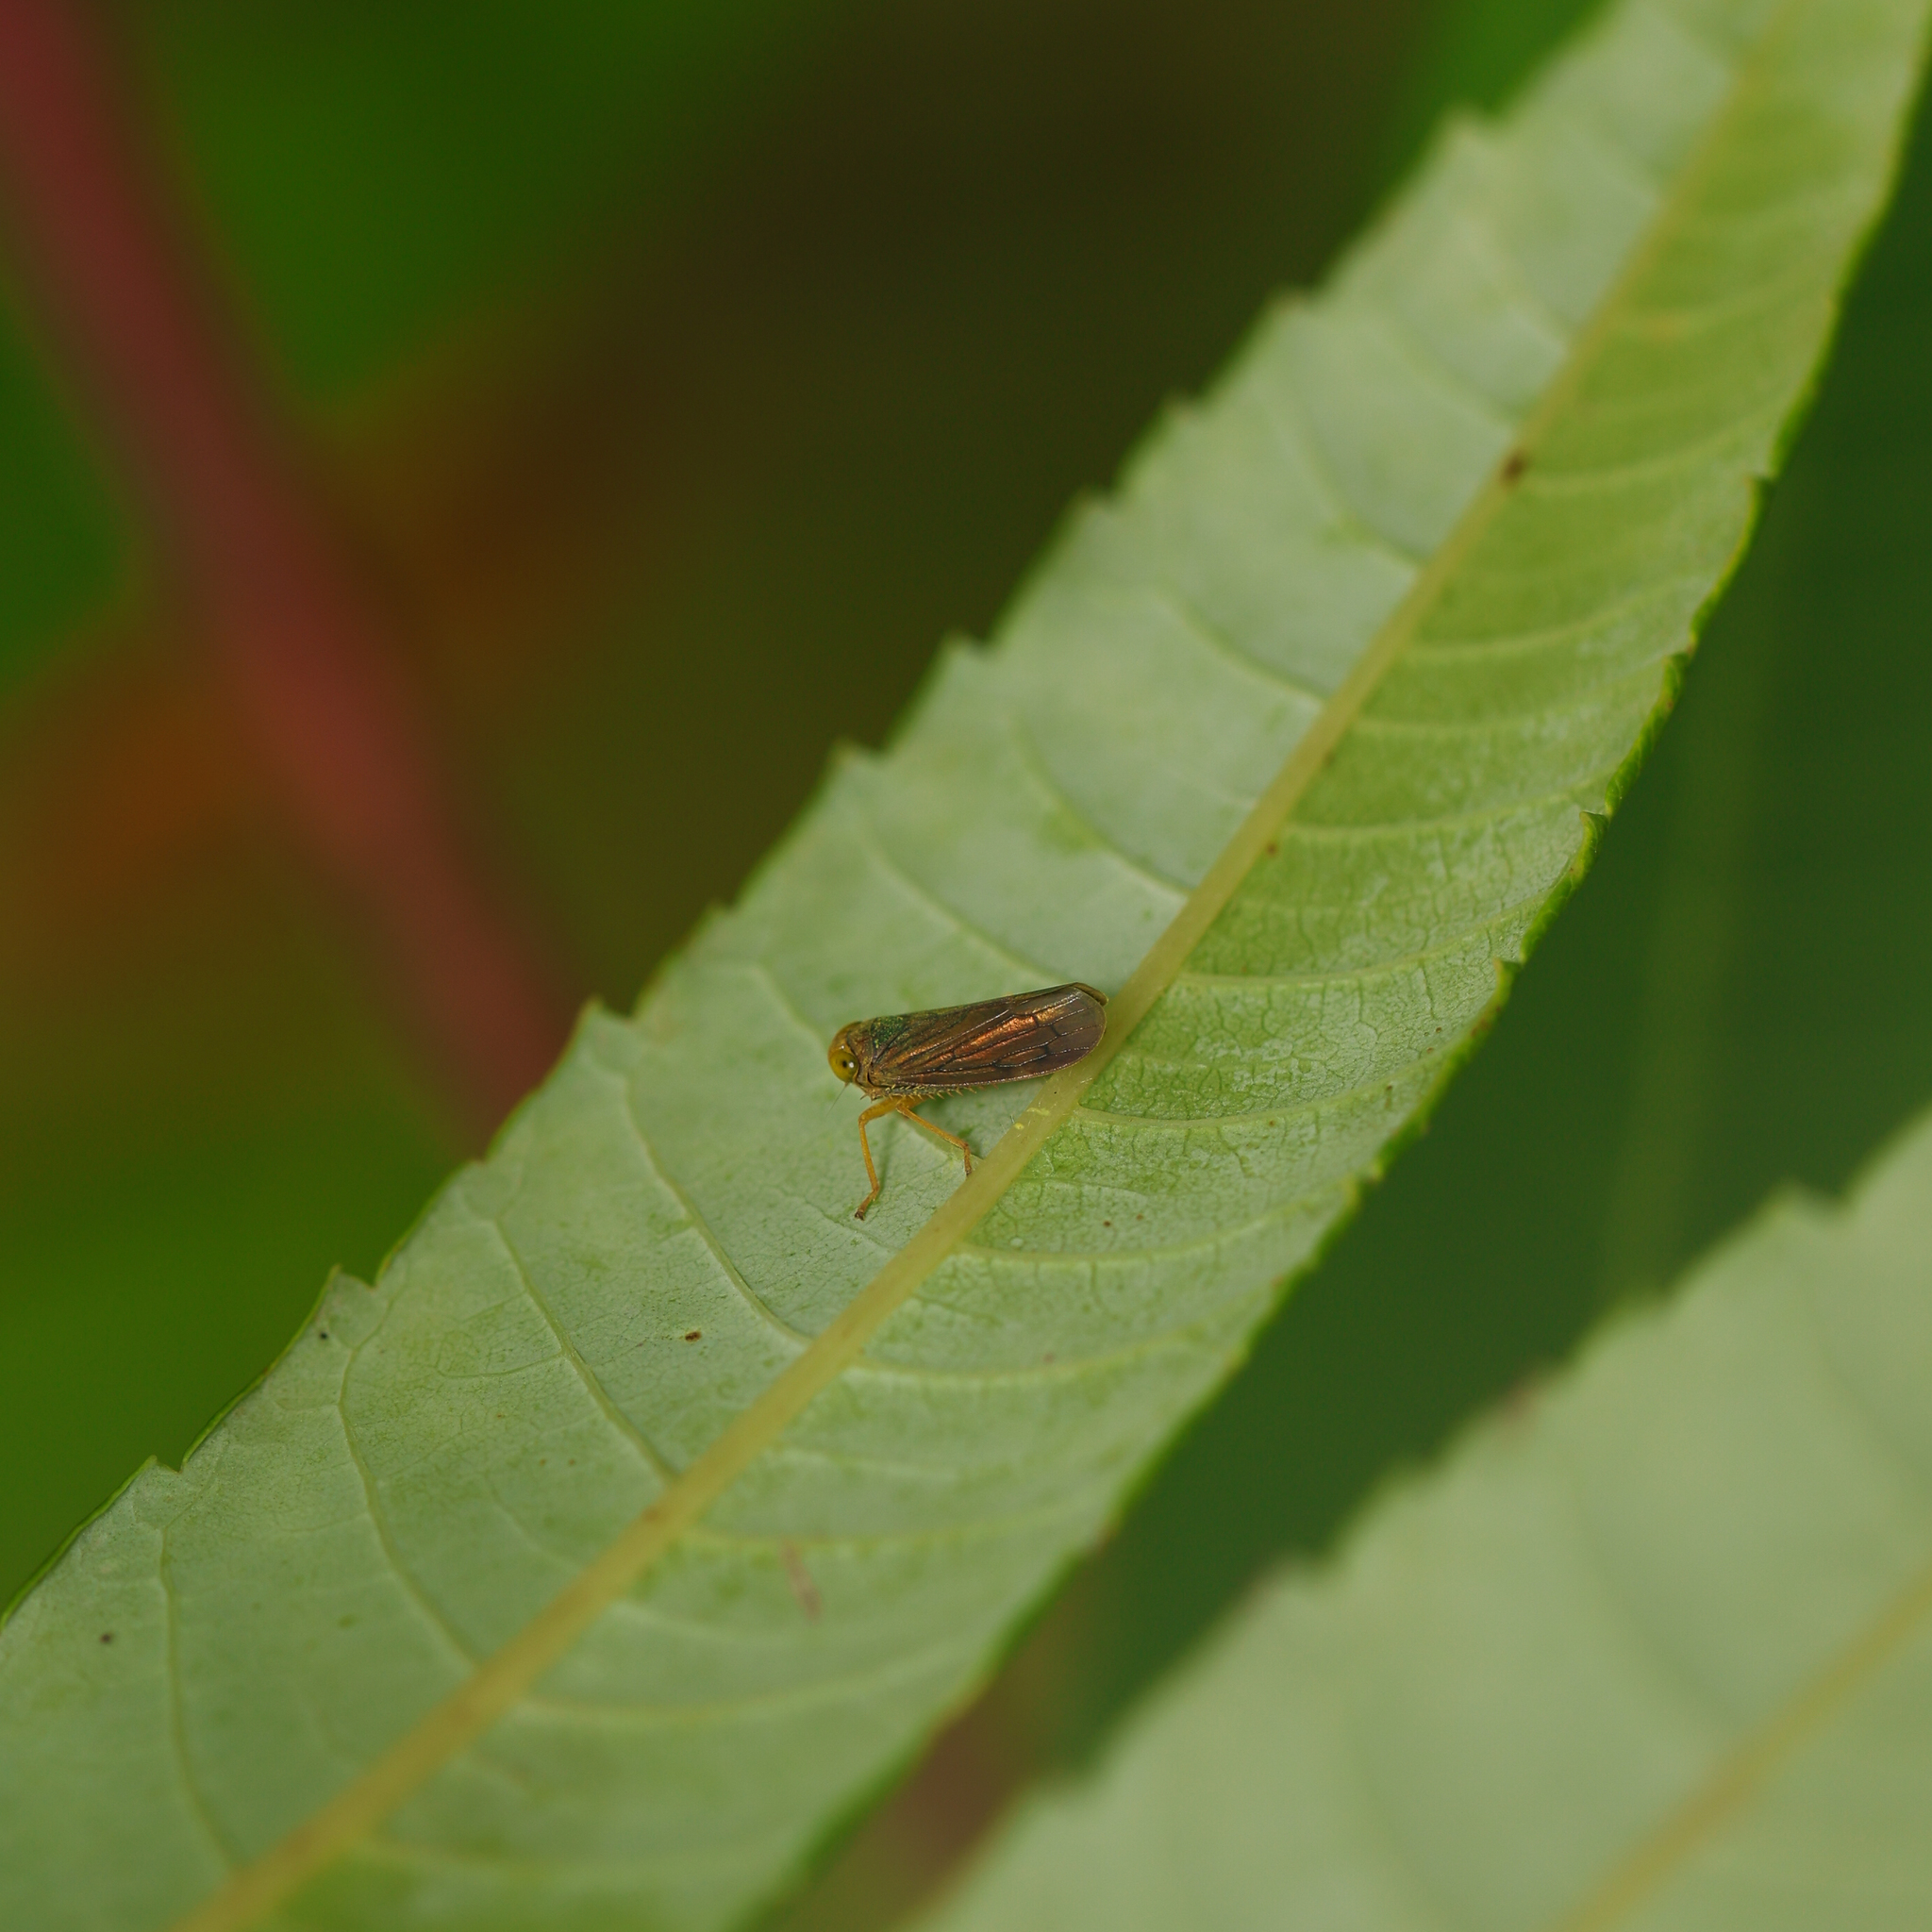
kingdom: Animalia
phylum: Arthropoda
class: Insecta
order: Hemiptera
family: Cicadellidae
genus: Jikradia
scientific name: Jikradia olitoria
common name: Coppery leafhopper
